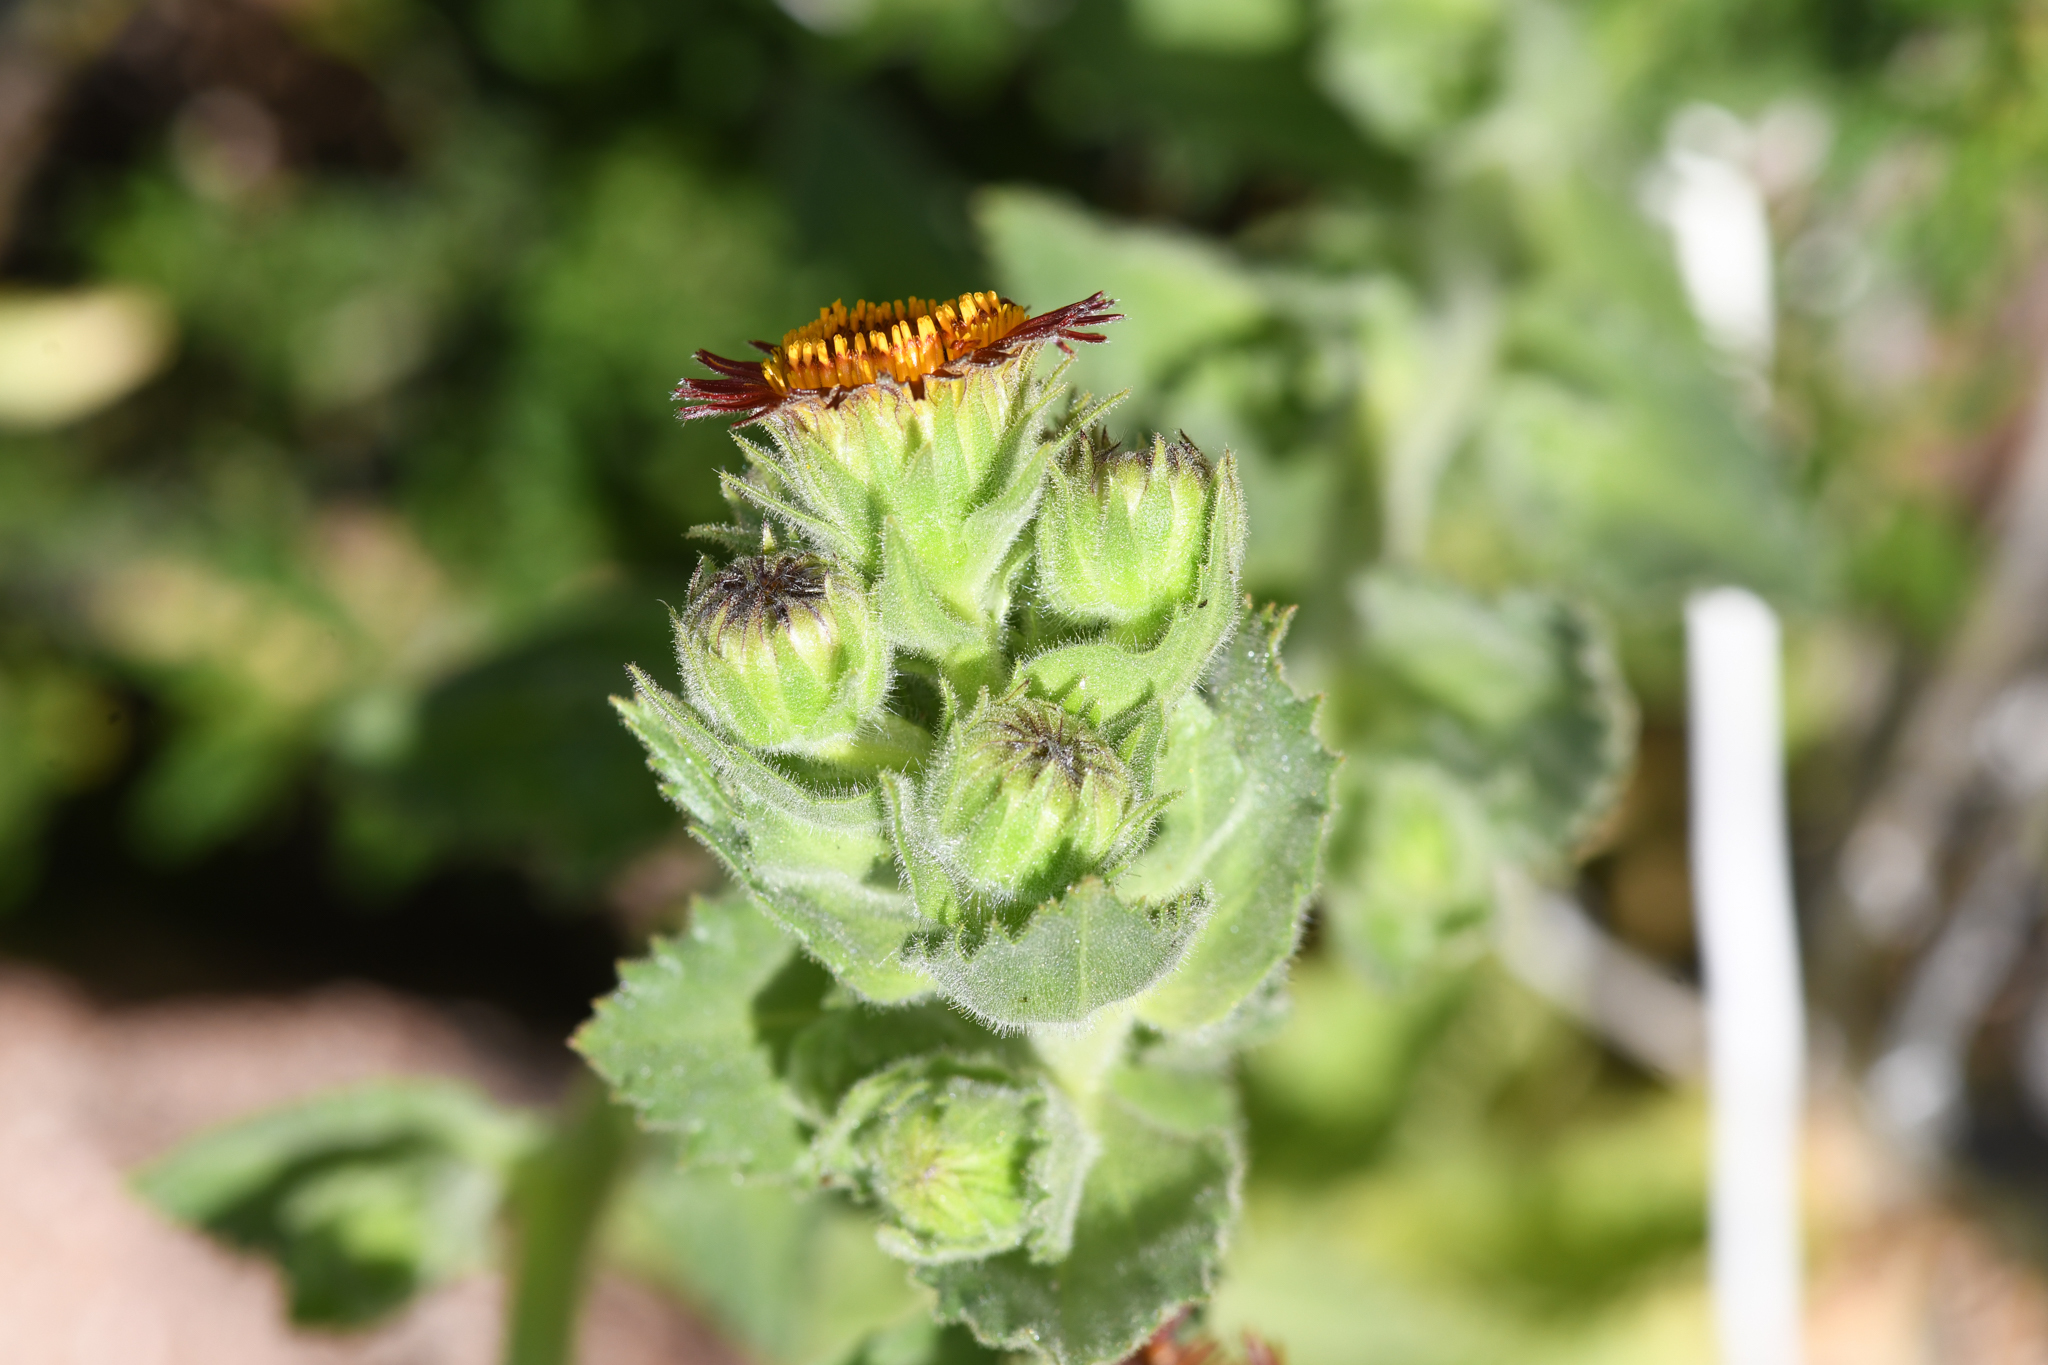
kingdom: Plantae
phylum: Tracheophyta
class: Magnoliopsida
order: Asterales
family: Asteraceae
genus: Hulsea
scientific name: Hulsea heterochroma
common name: Redray alpinegold
